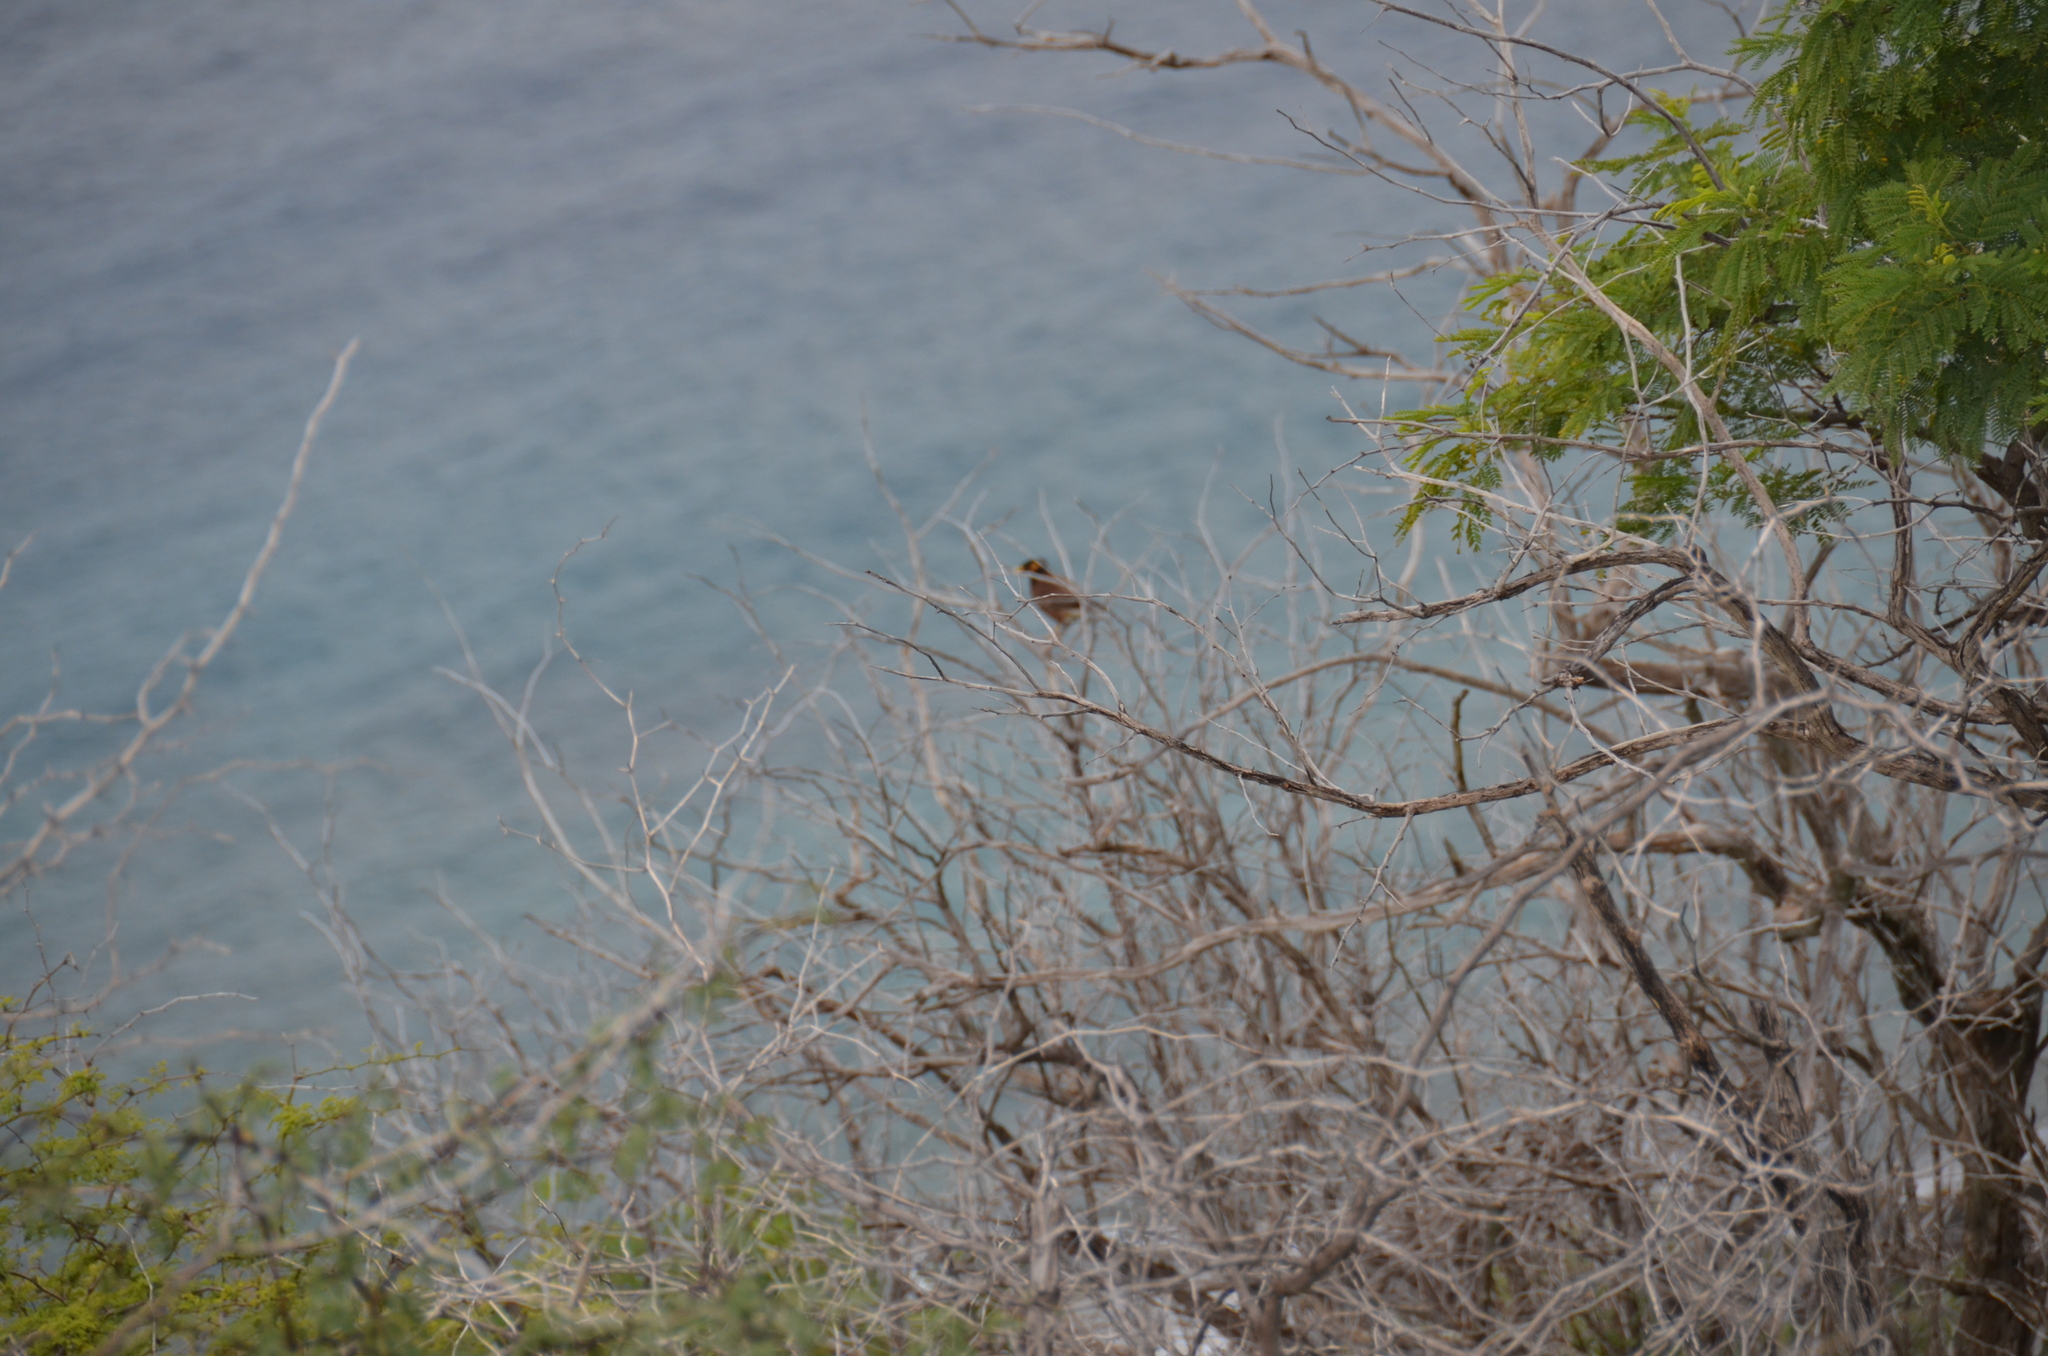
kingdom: Animalia
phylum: Chordata
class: Aves
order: Passeriformes
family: Sturnidae
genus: Acridotheres
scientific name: Acridotheres tristis
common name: Common myna
